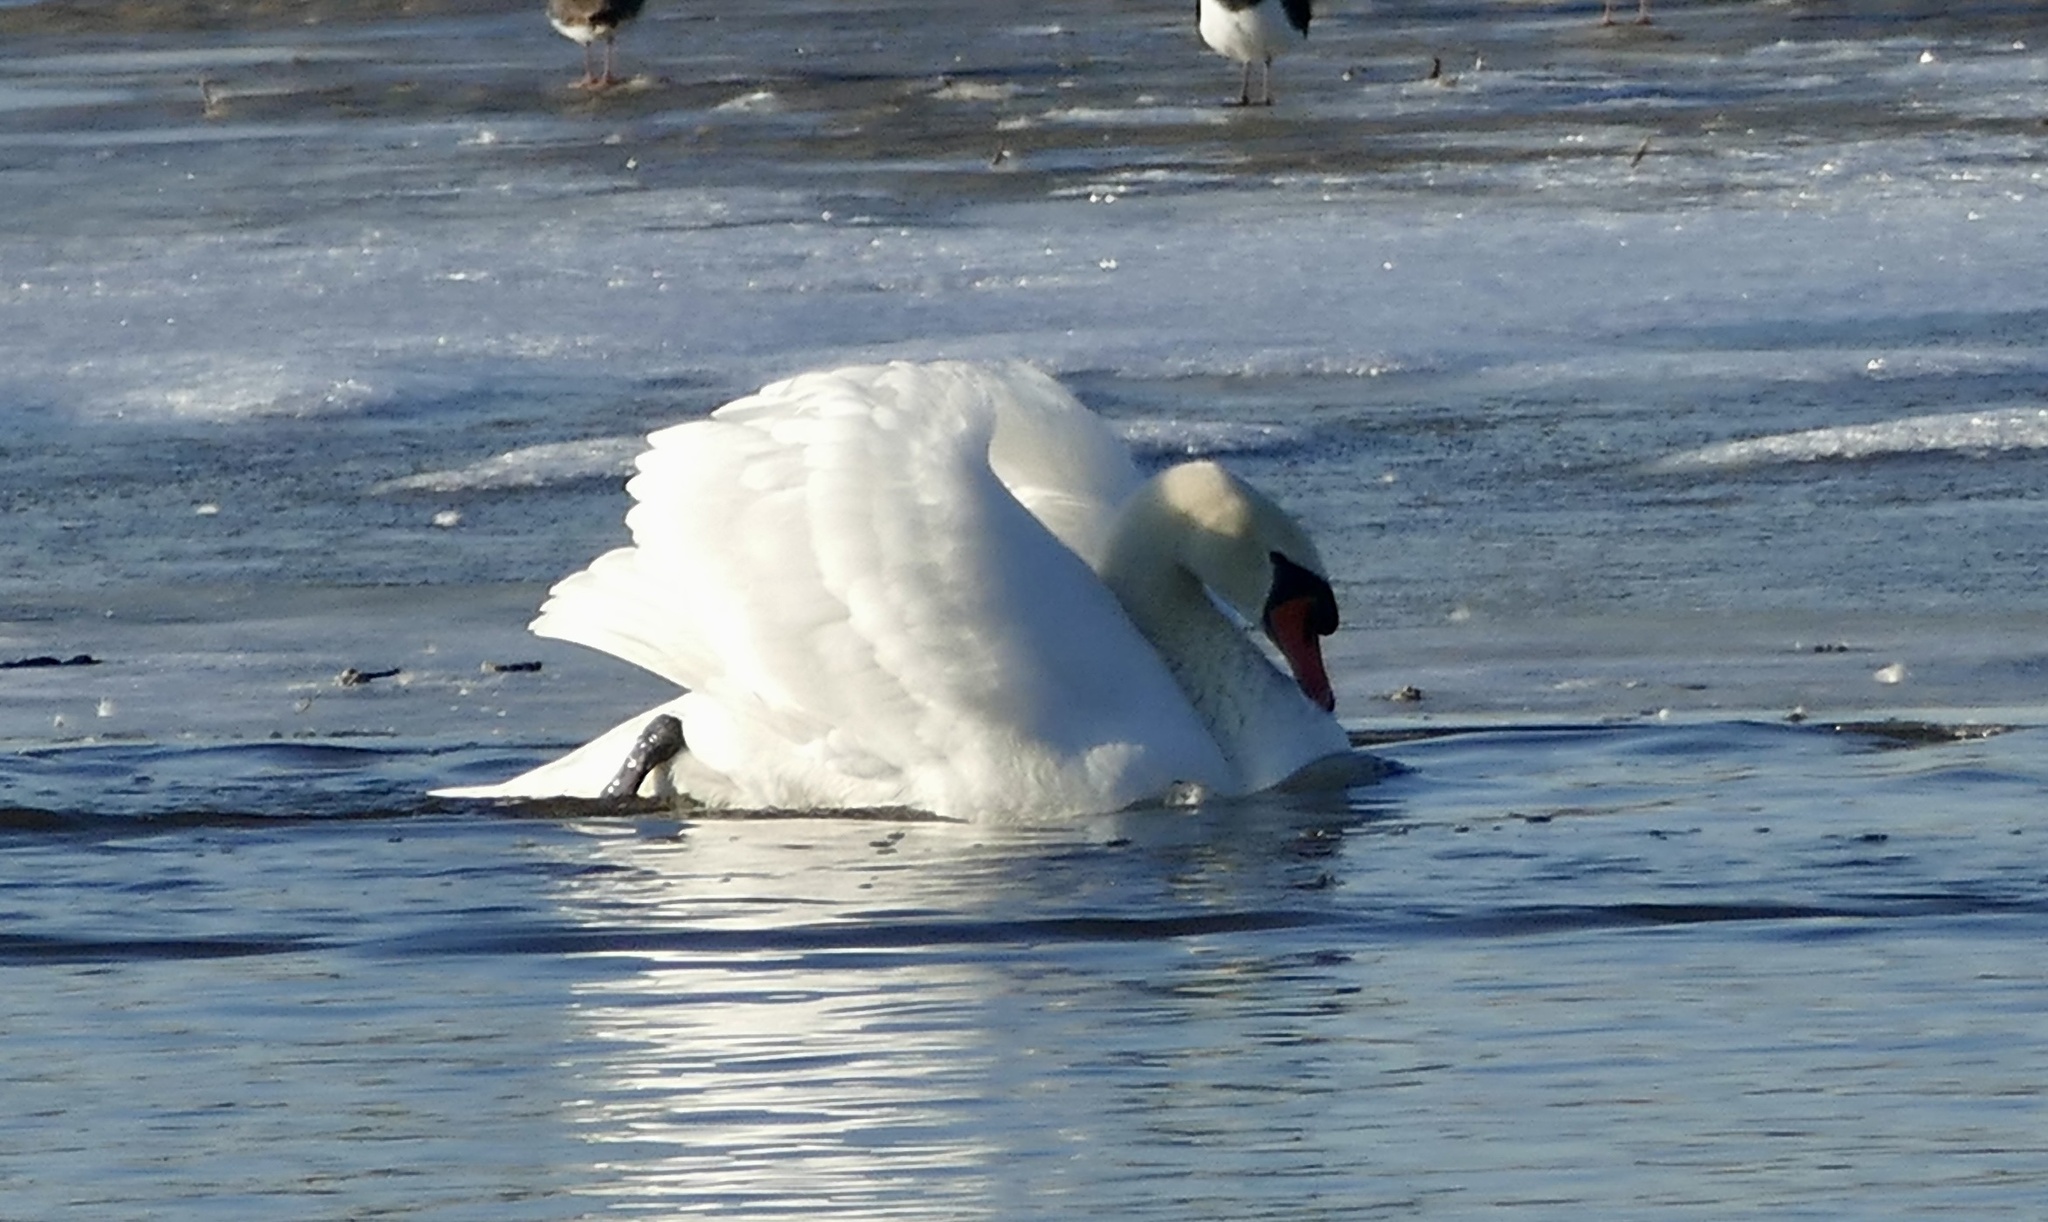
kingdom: Animalia
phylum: Chordata
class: Aves
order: Anseriformes
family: Anatidae
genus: Cygnus
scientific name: Cygnus olor
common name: Mute swan
